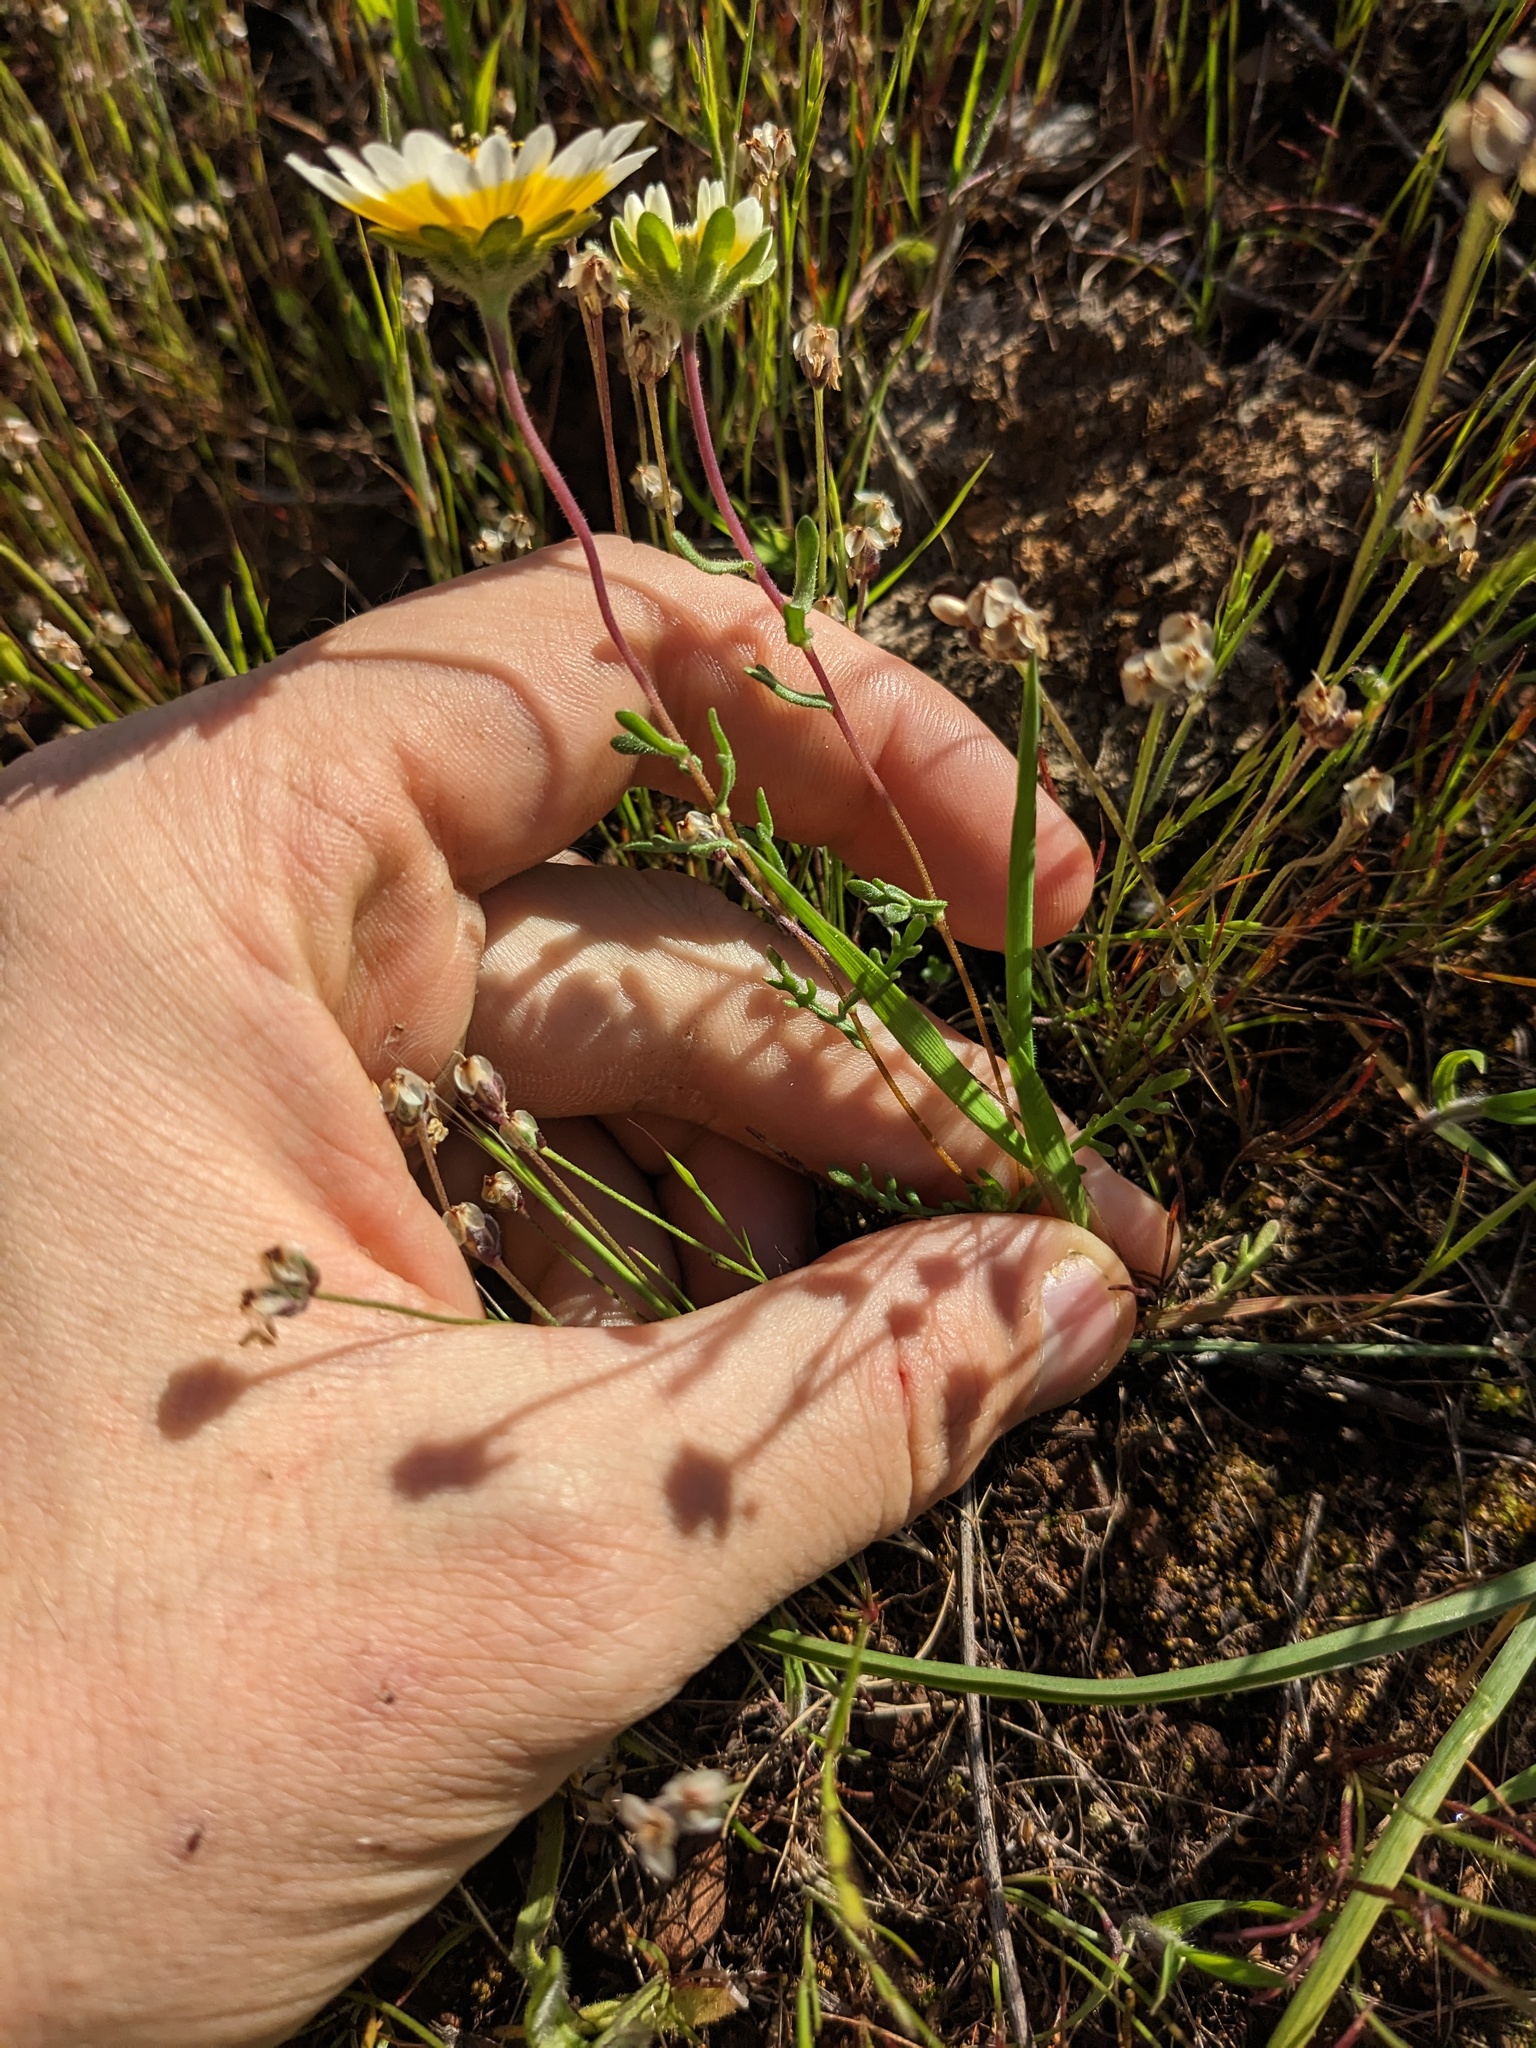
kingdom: Plantae
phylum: Tracheophyta
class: Magnoliopsida
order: Asterales
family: Asteraceae
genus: Layia
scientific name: Layia fremontii
